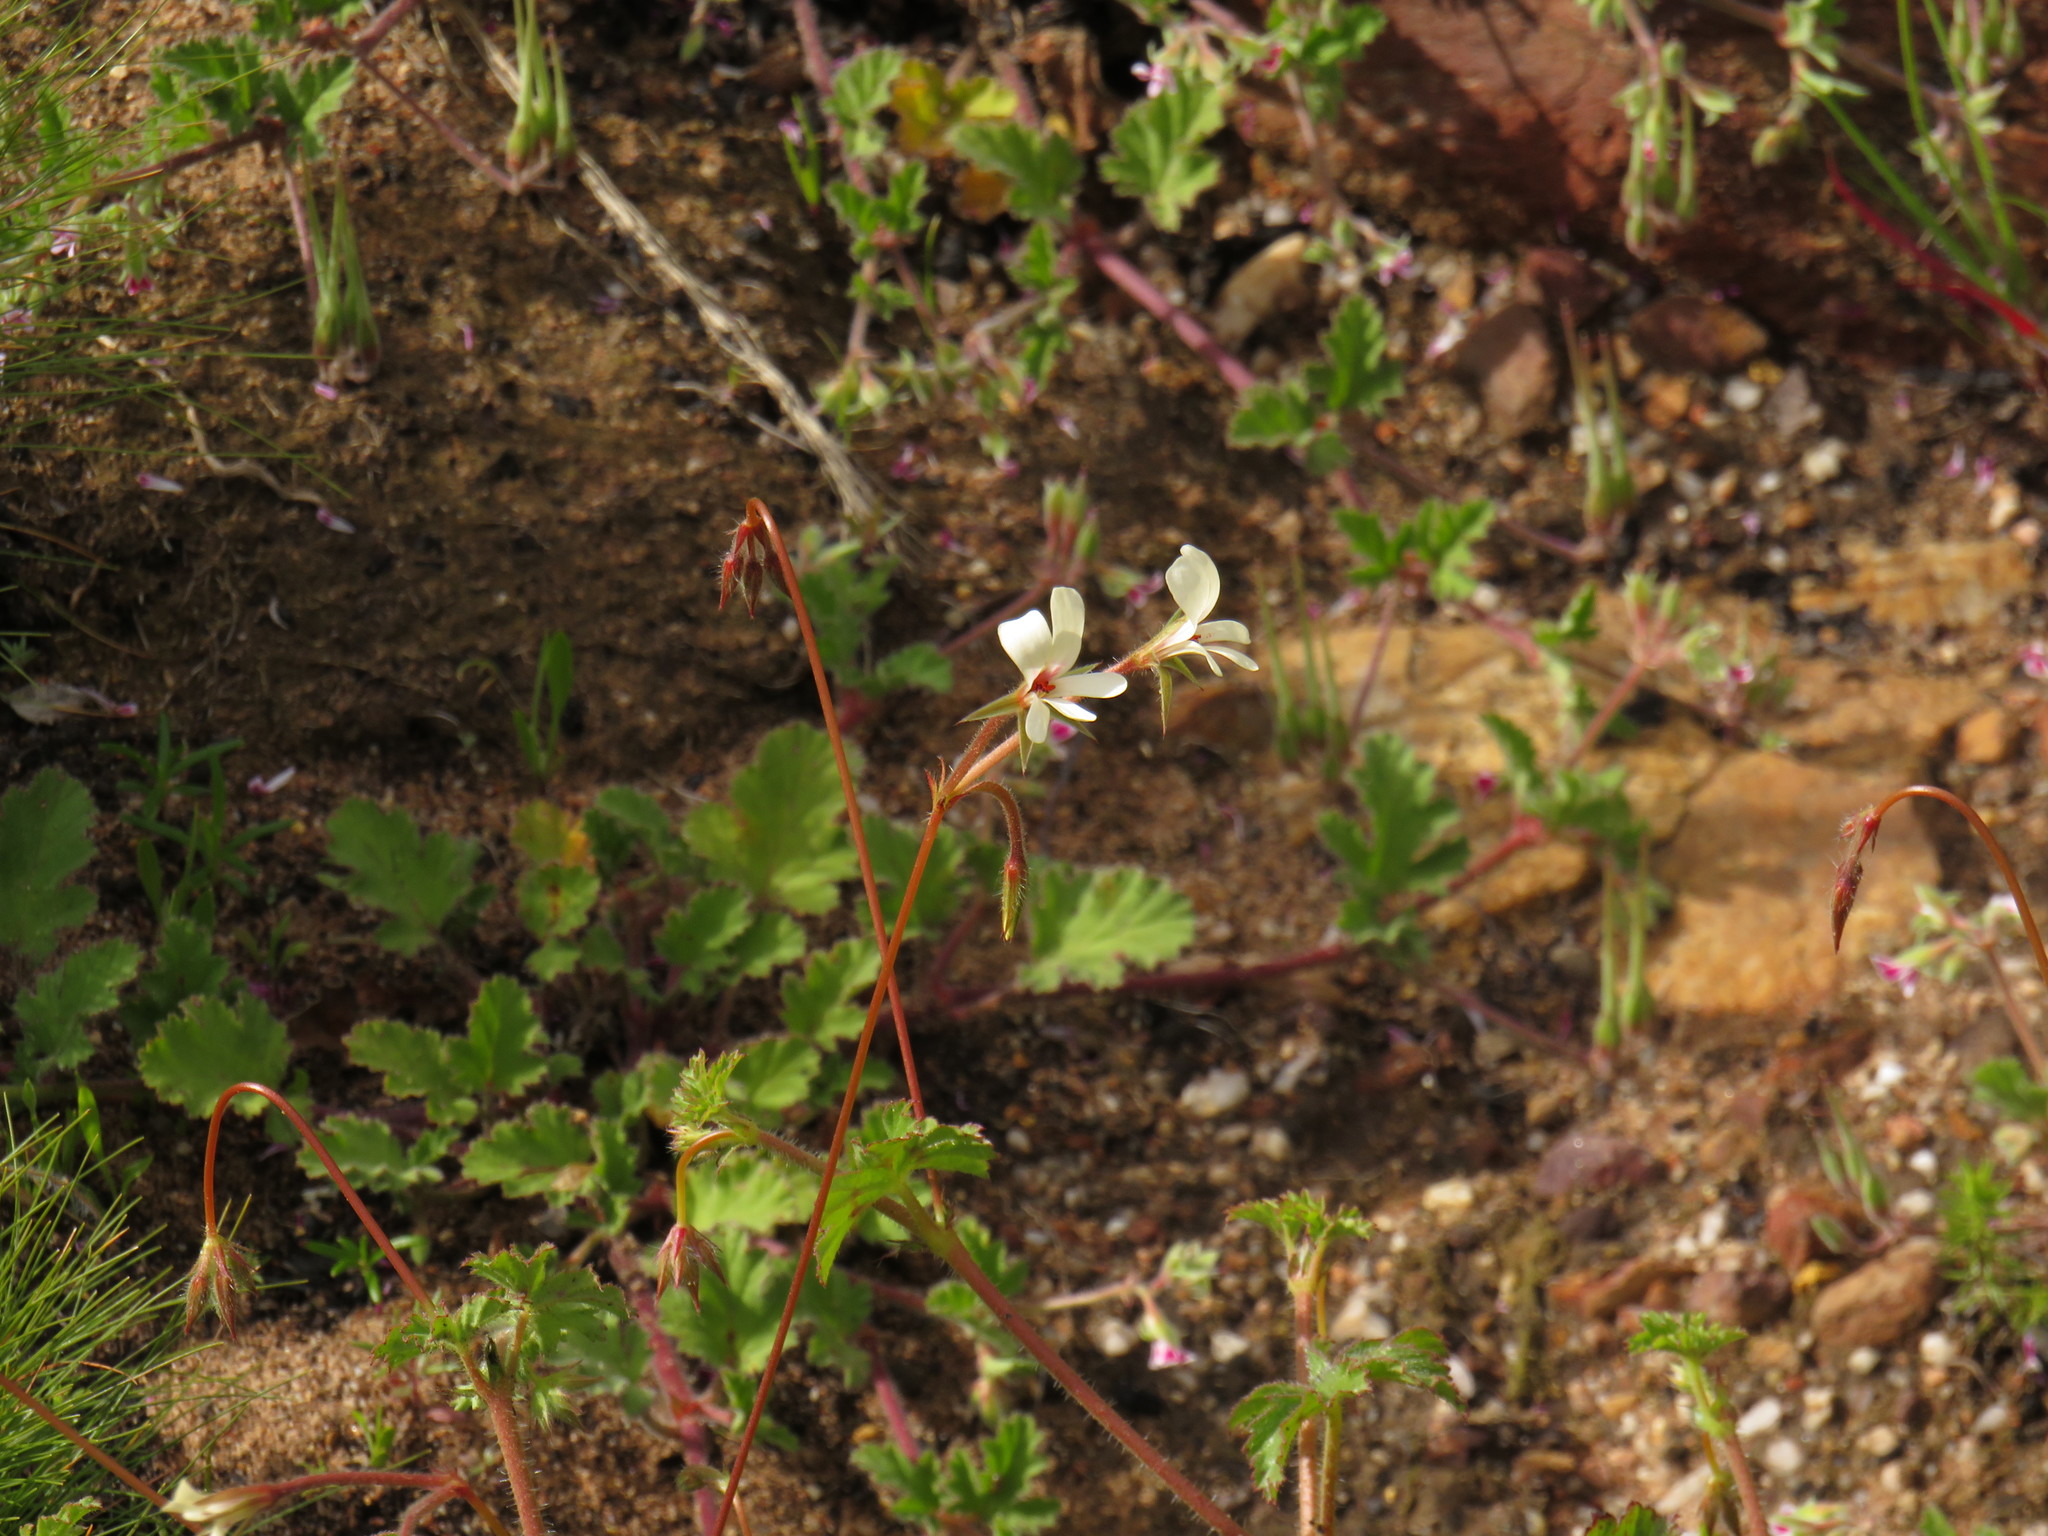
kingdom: Plantae
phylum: Tracheophyta
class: Magnoliopsida
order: Geraniales
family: Geraniaceae
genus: Pelargonium
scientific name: Pelargonium elongatum
